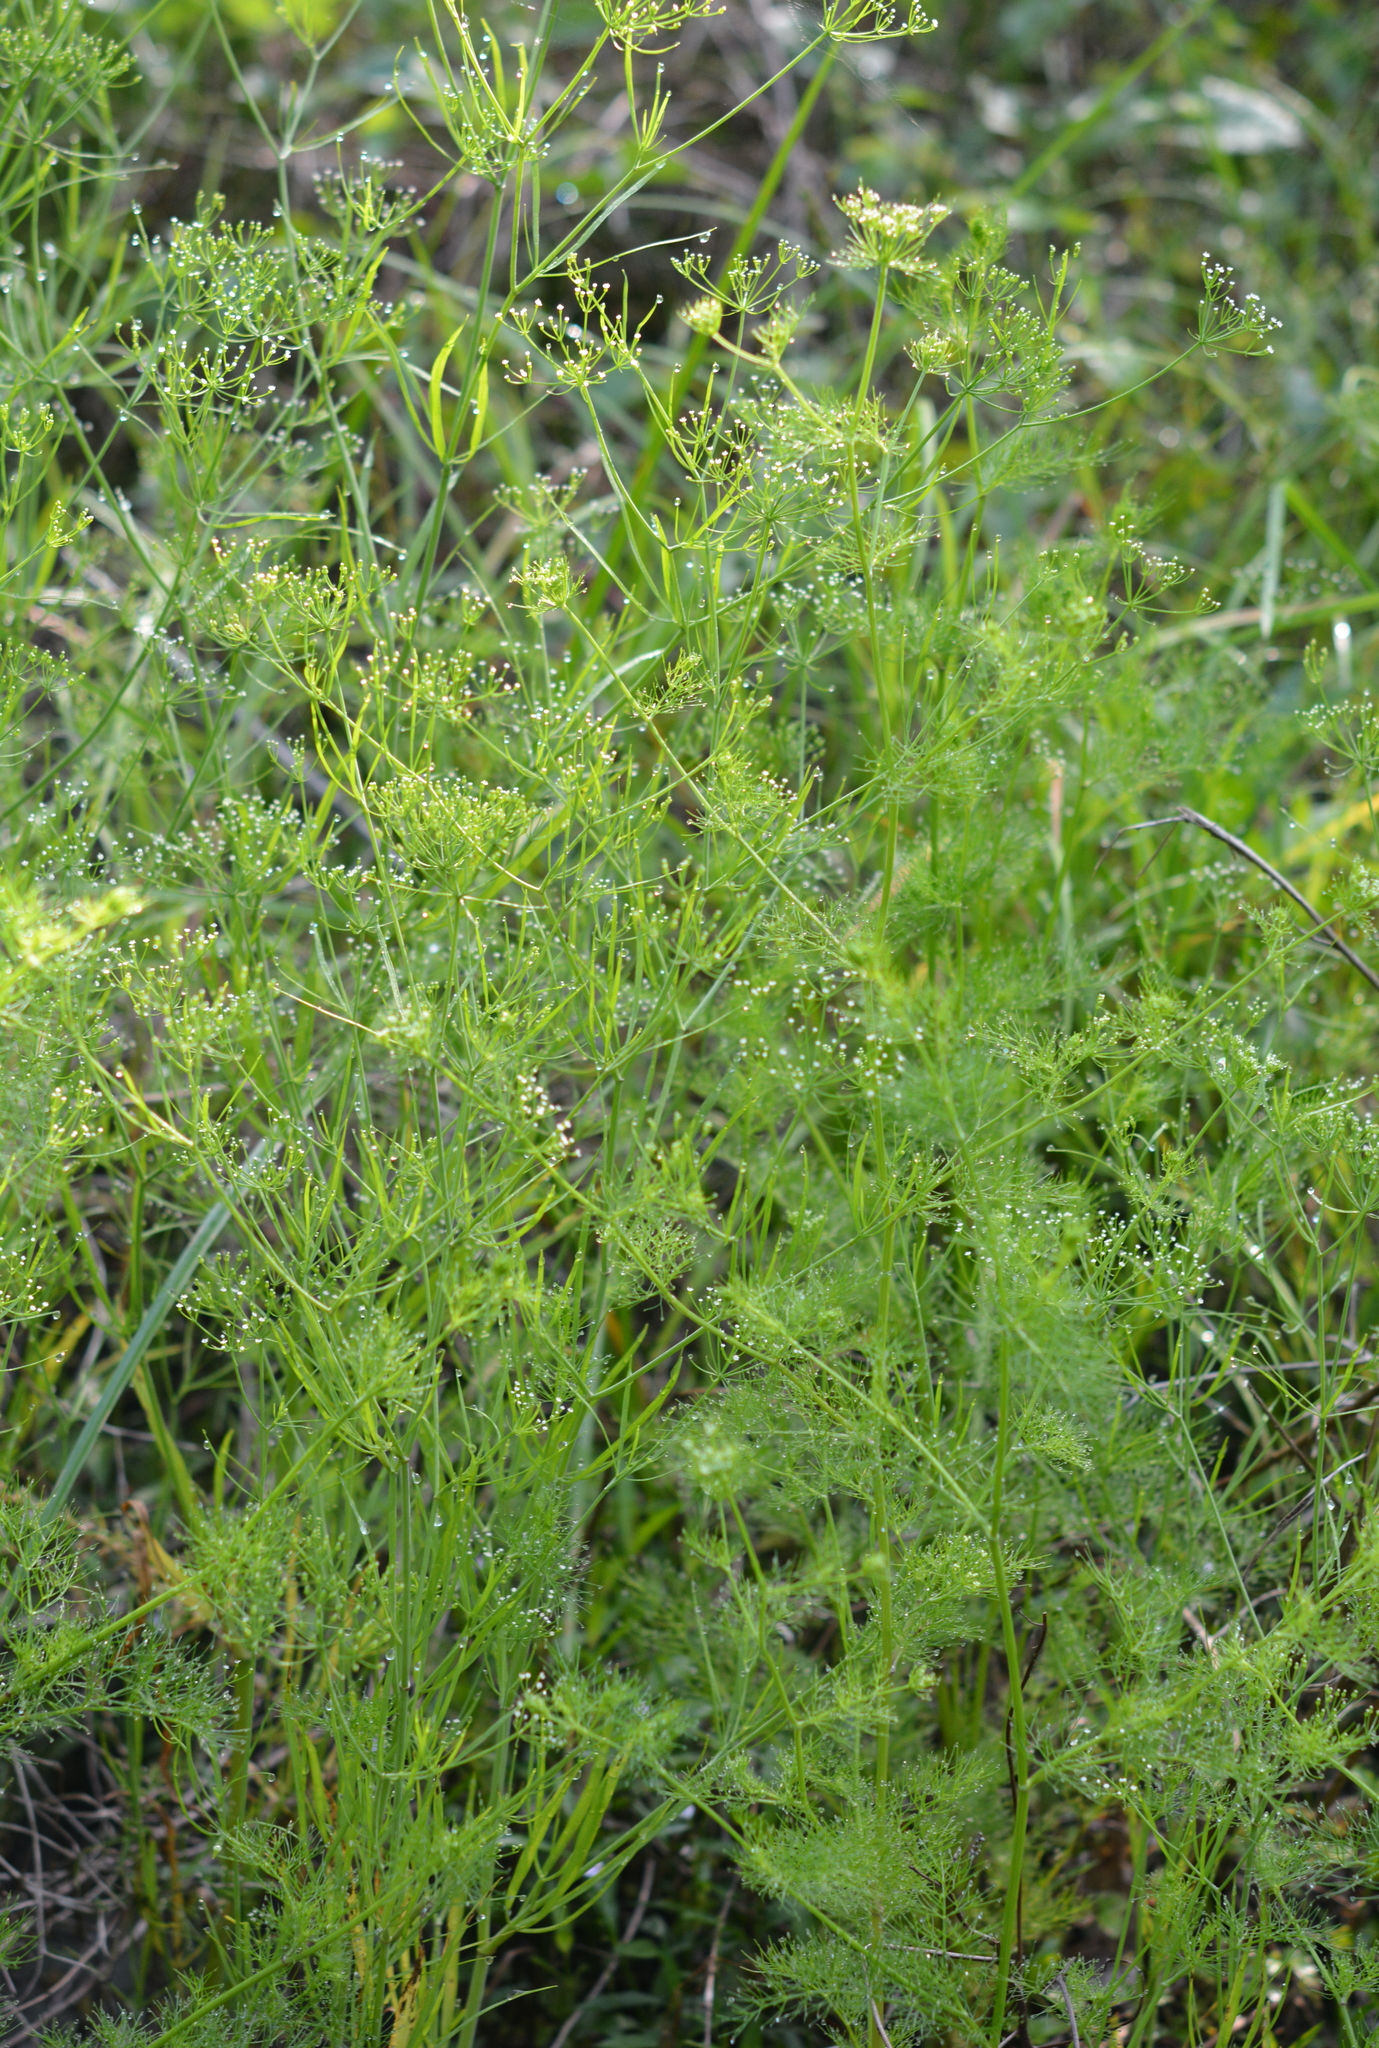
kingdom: Plantae
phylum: Tracheophyta
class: Magnoliopsida
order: Apiales
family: Apiaceae
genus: Ptilimnium
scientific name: Ptilimnium capillaceum
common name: Herbwilliam
